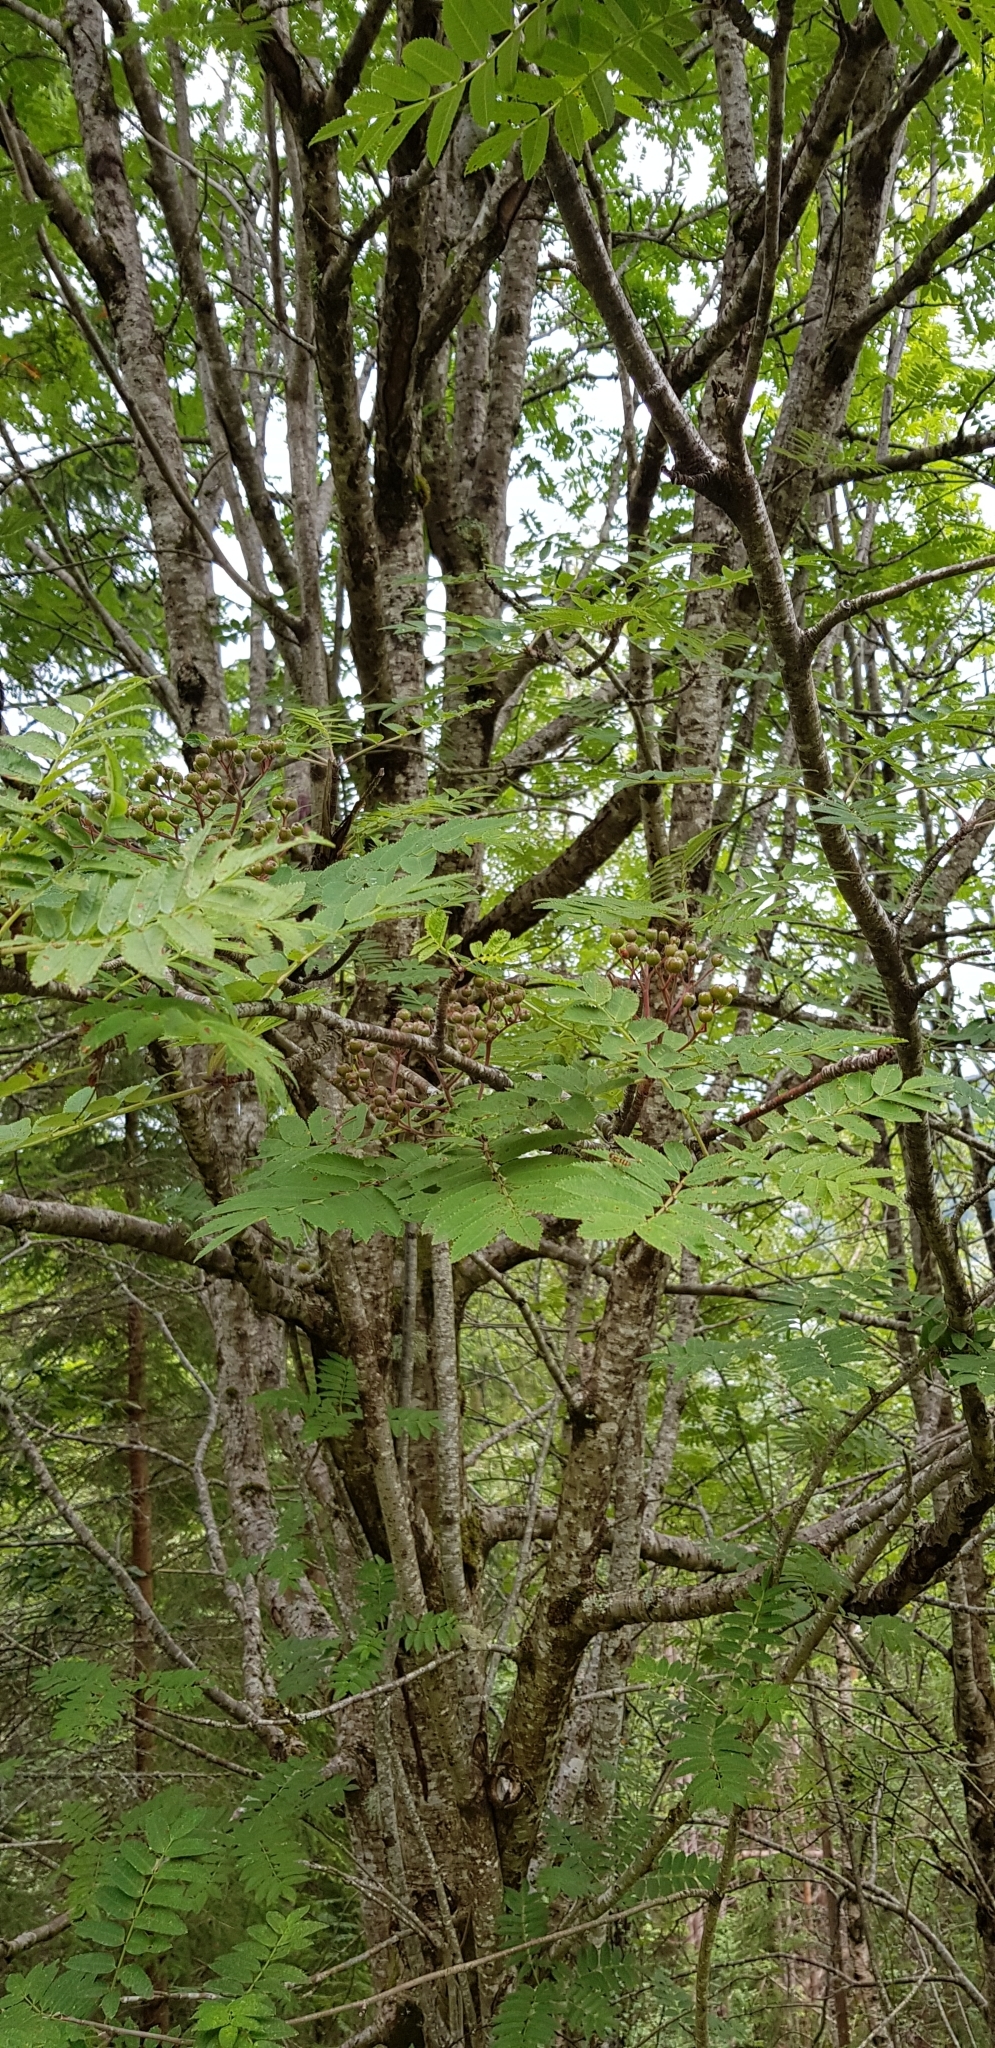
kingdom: Plantae
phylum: Tracheophyta
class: Magnoliopsida
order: Rosales
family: Rosaceae
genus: Sorbus
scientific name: Sorbus aucuparia
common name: Rowan
